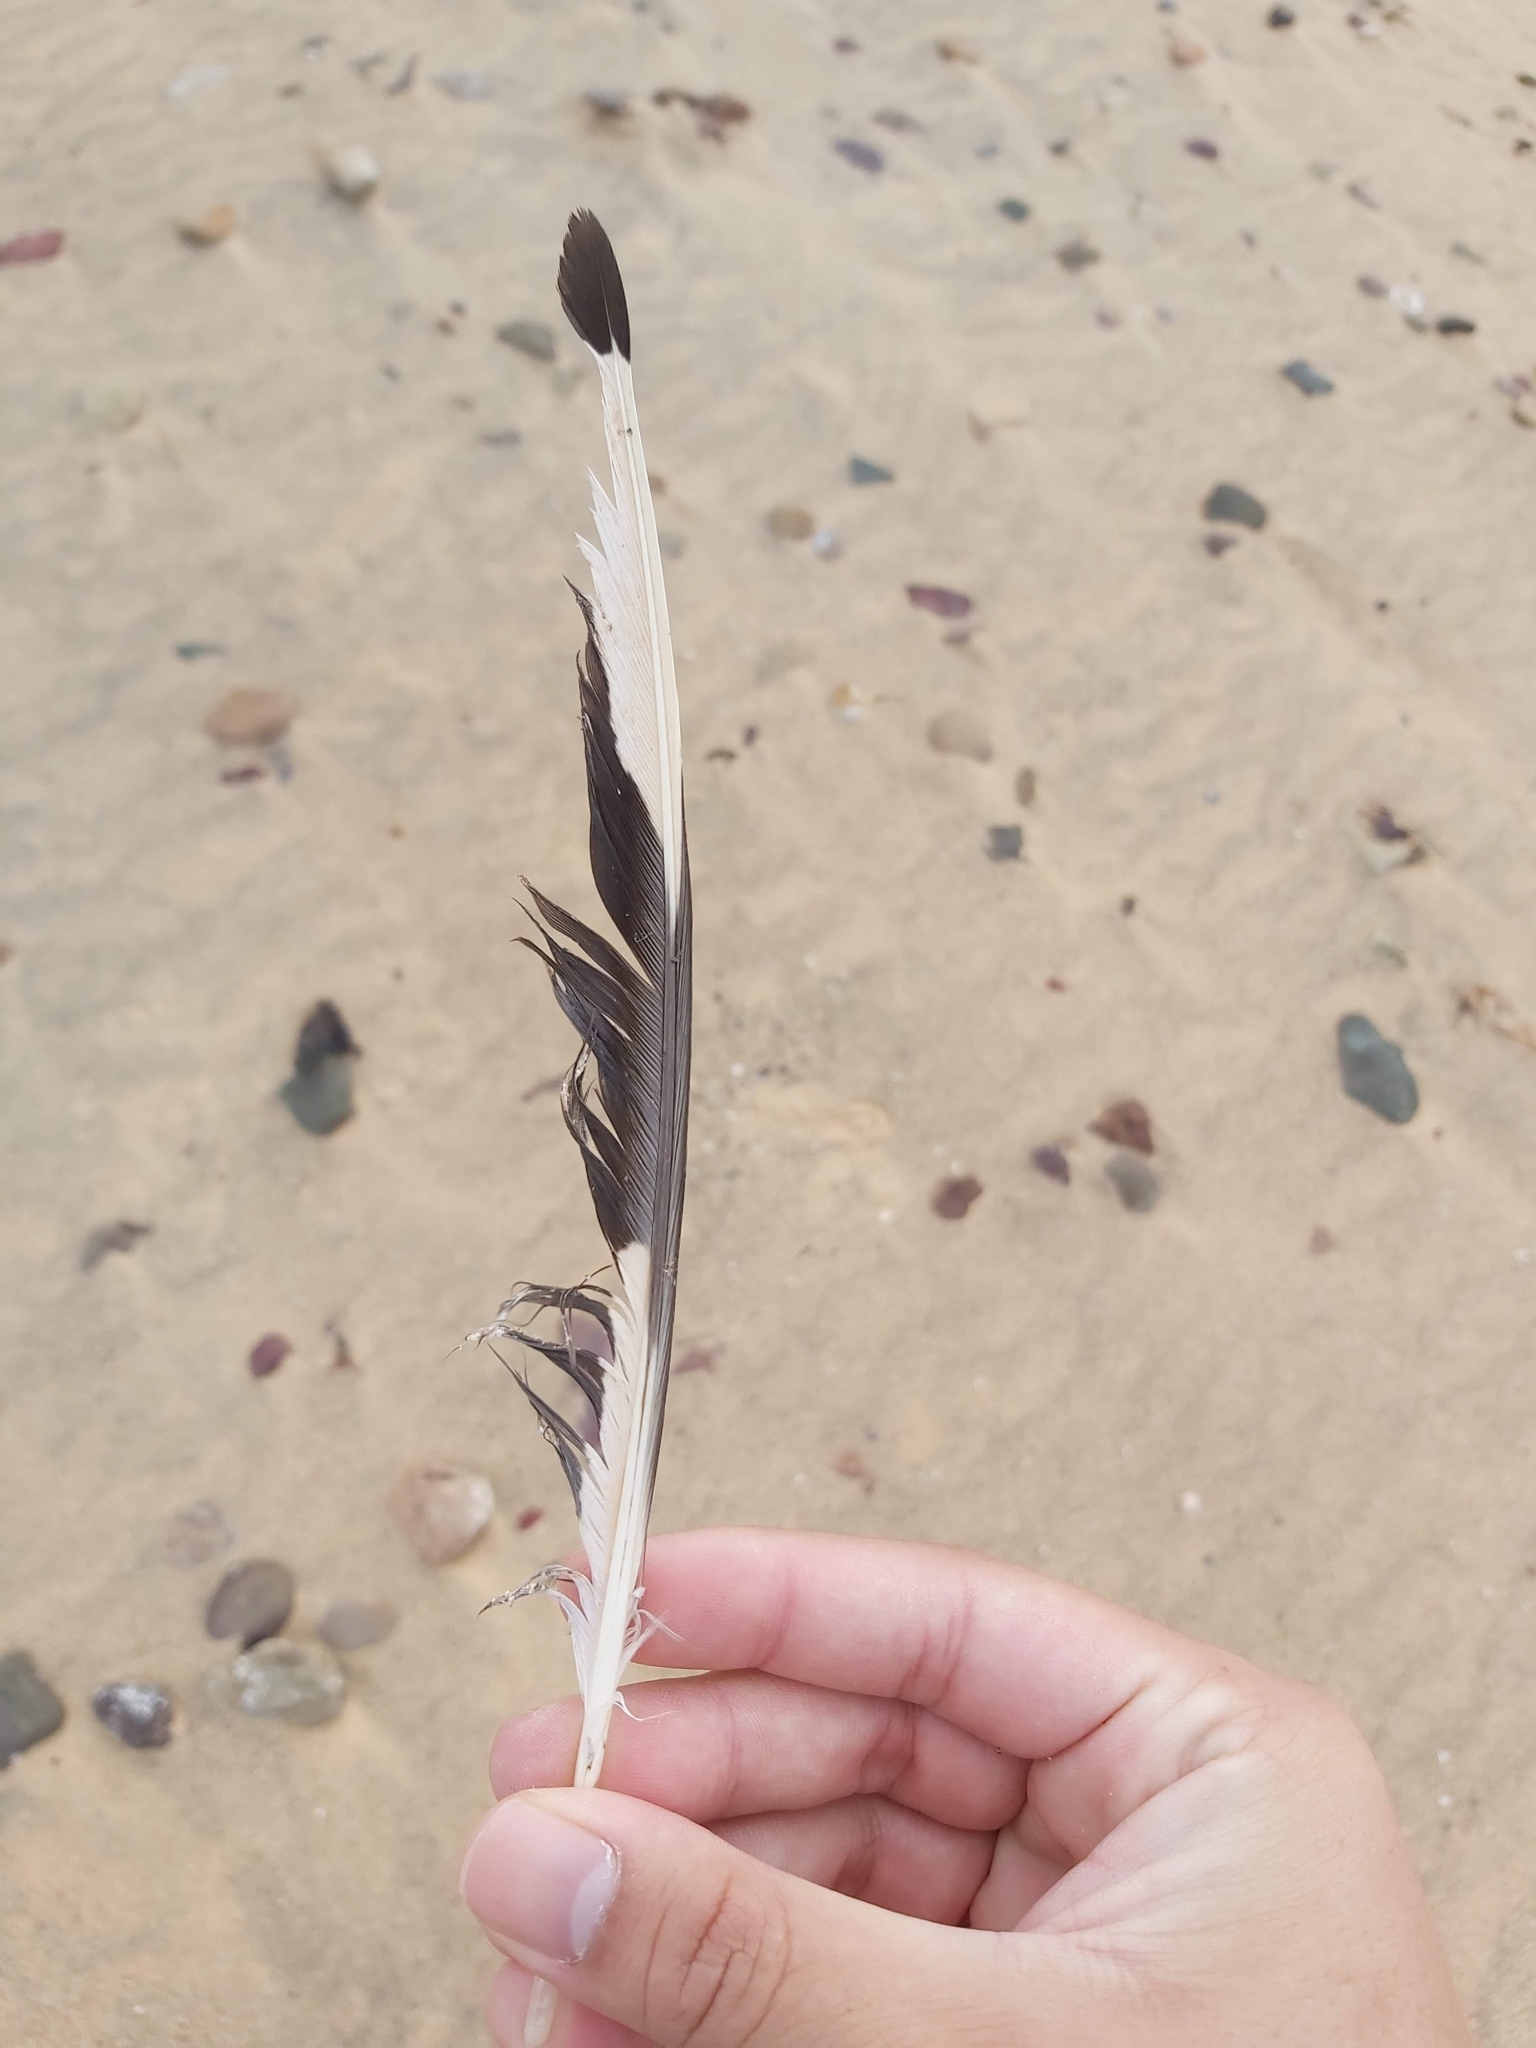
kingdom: Animalia
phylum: Chordata
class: Aves
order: Charadriiformes
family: Laridae
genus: Chroicocephalus
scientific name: Chroicocephalus novaehollandiae
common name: Silver gull
